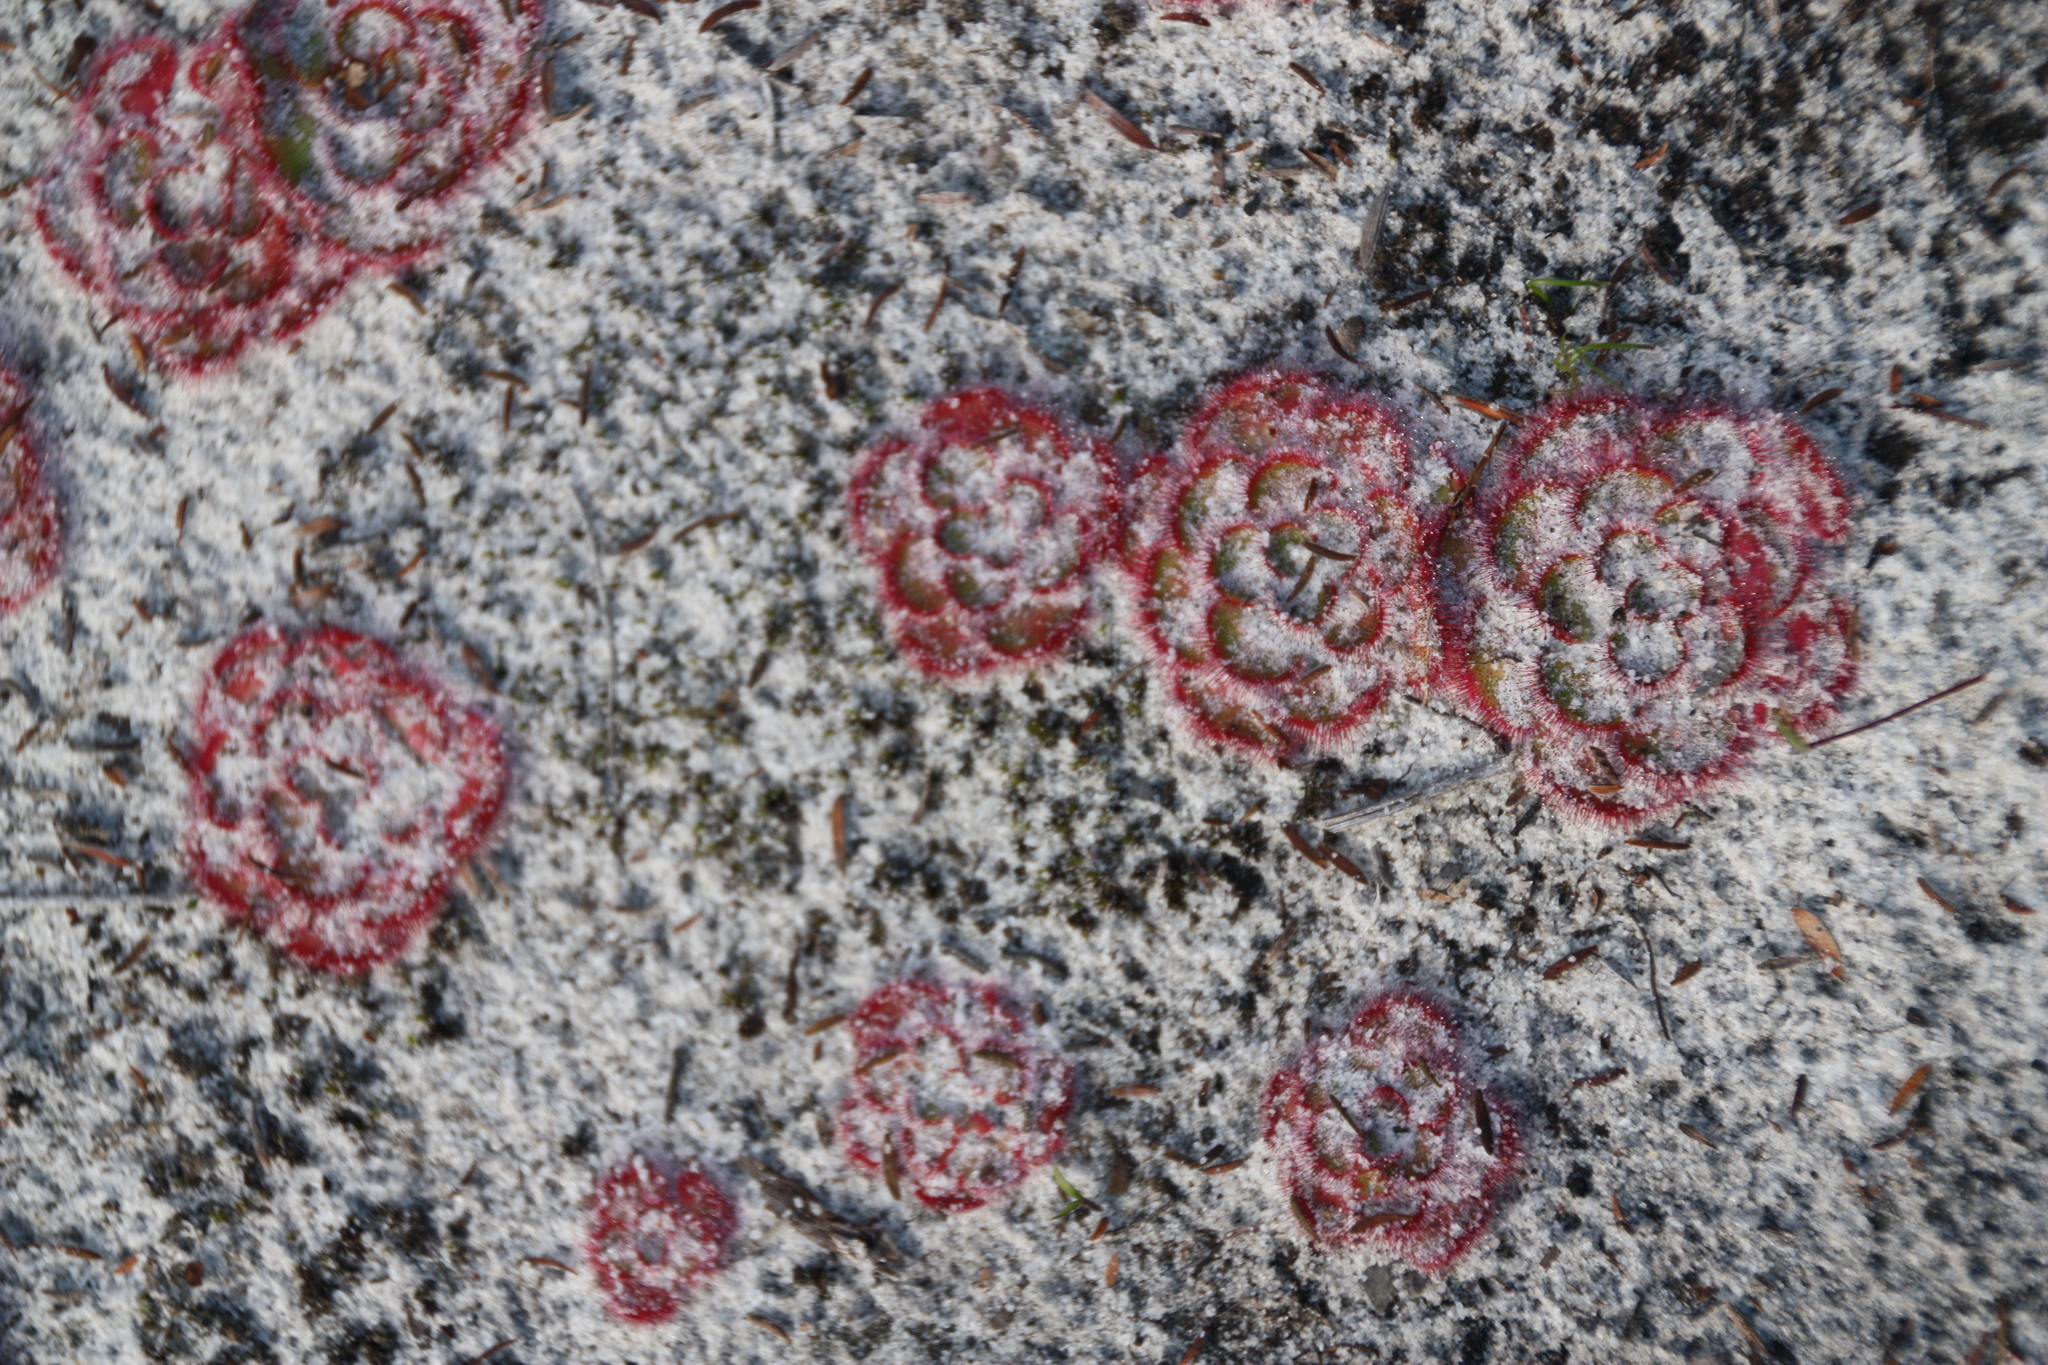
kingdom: Plantae
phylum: Tracheophyta
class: Magnoliopsida
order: Caryophyllales
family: Droseraceae
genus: Drosera
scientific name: Drosera zonaria
